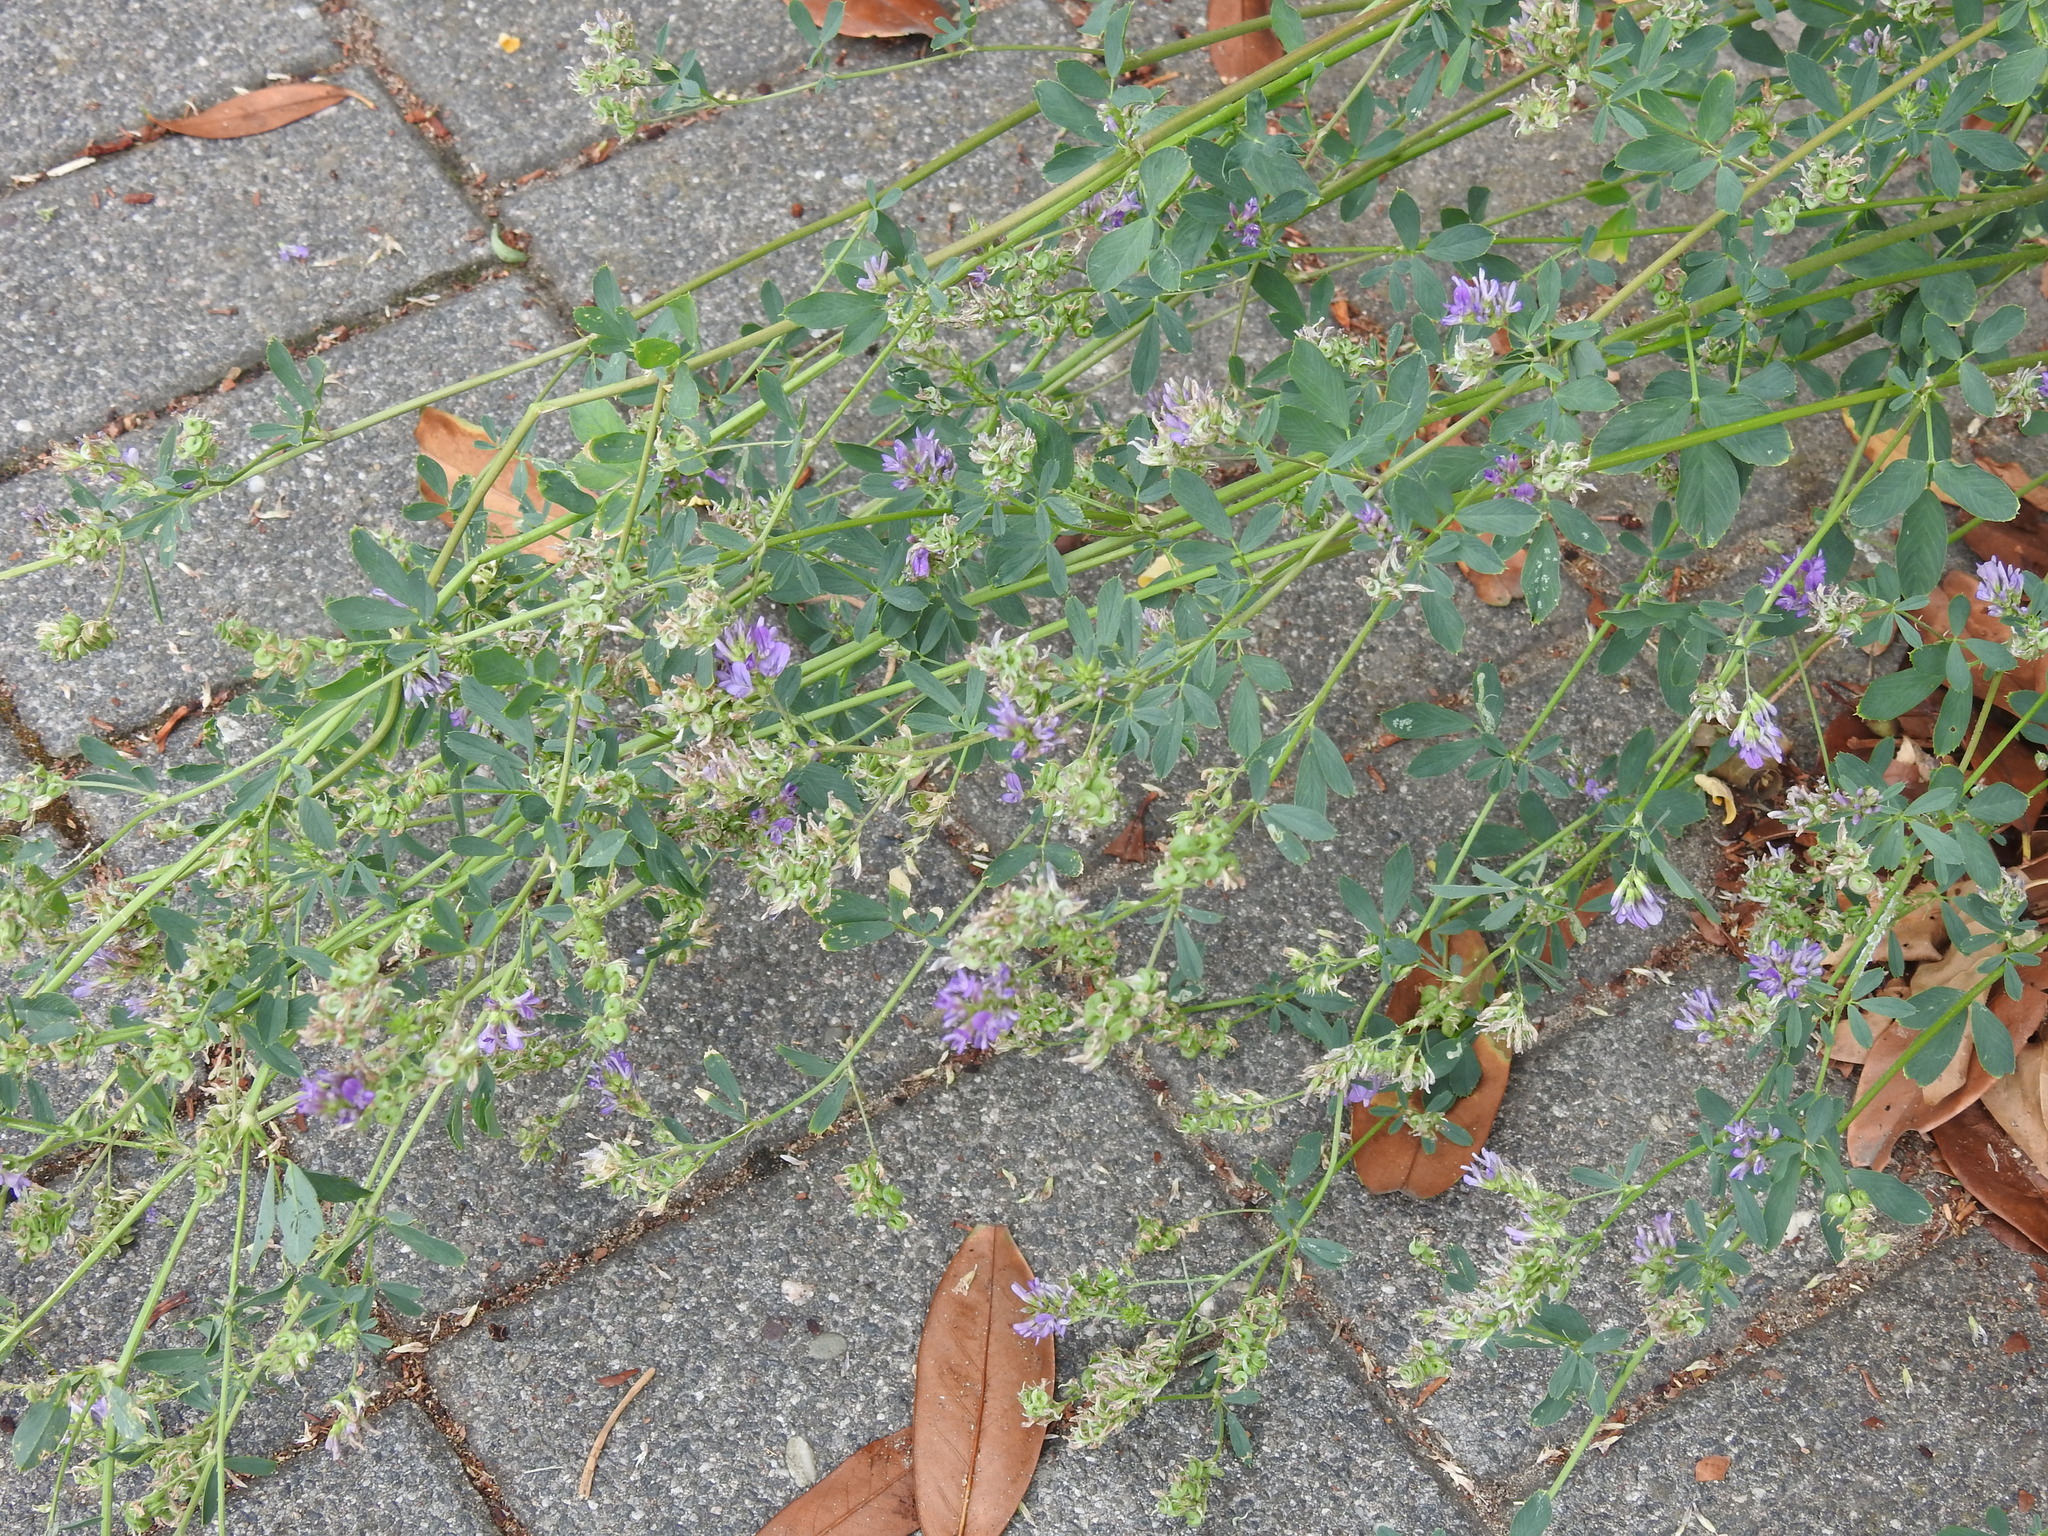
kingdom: Plantae
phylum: Tracheophyta
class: Magnoliopsida
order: Fabales
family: Fabaceae
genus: Medicago
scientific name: Medicago varia
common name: Sand lucerne
